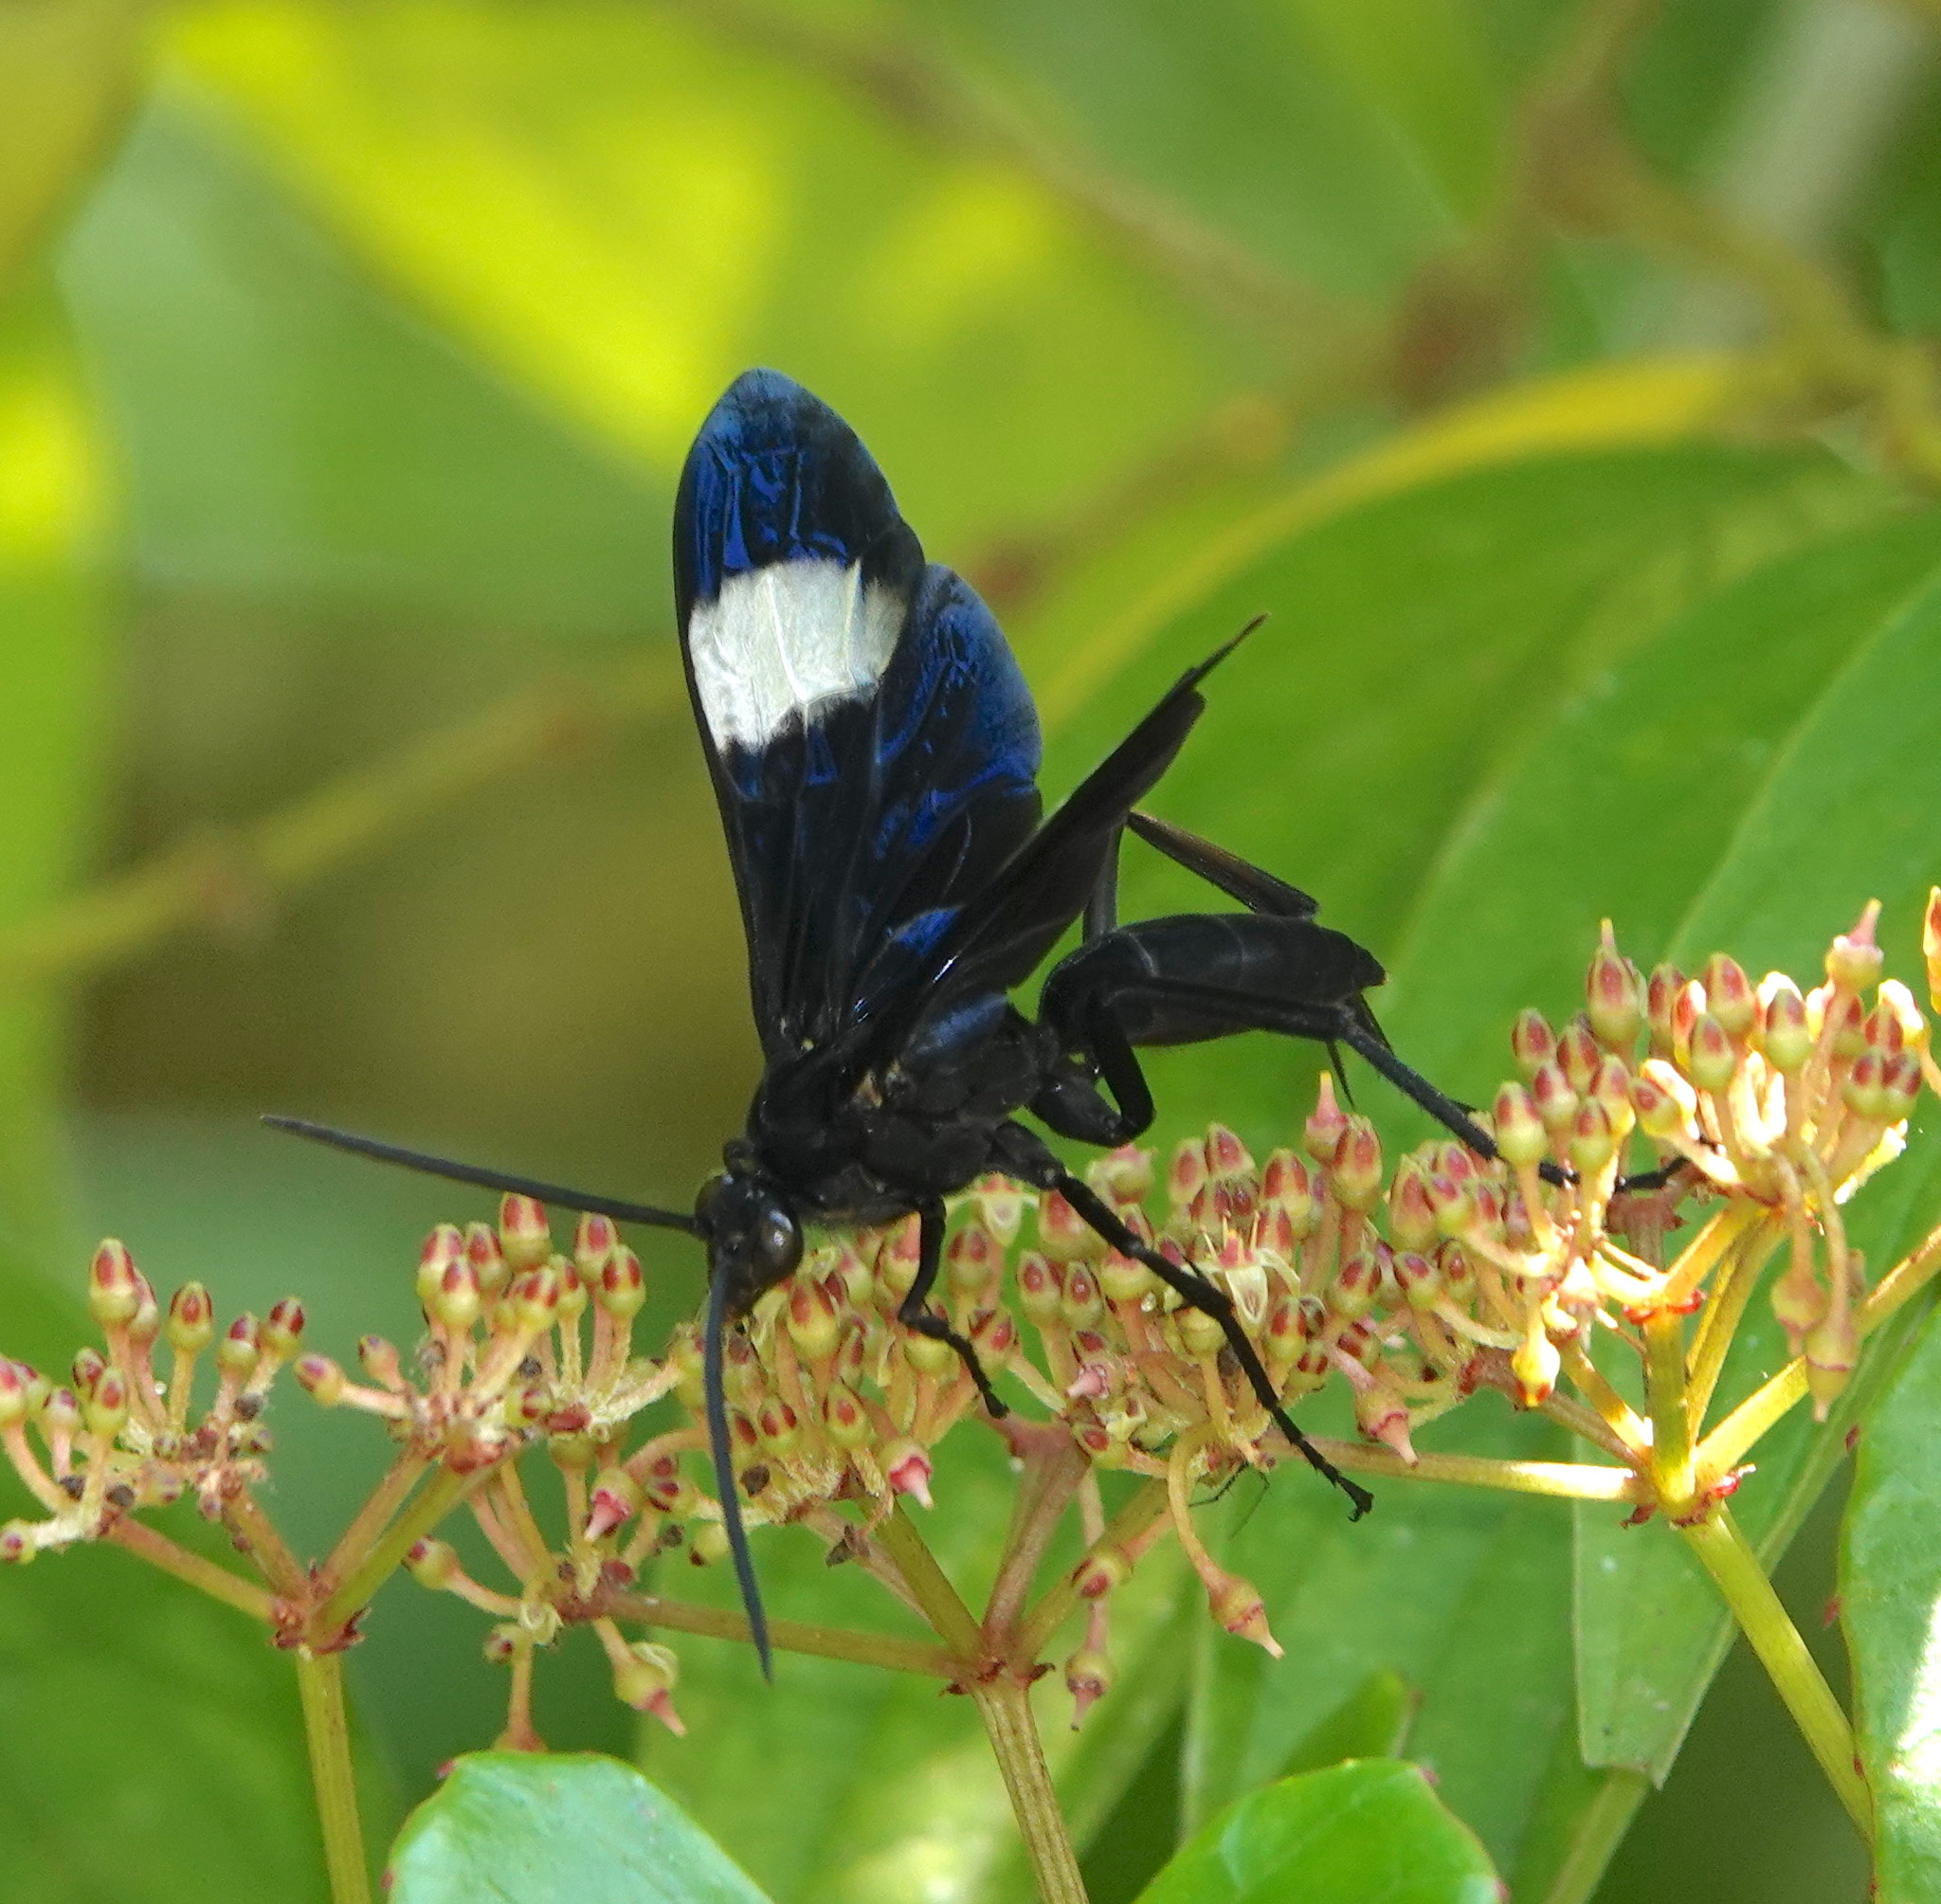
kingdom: Animalia
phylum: Arthropoda
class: Insecta
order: Hymenoptera
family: Pompilidae
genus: Hemipepsis
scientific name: Hemipepsis speculifer
